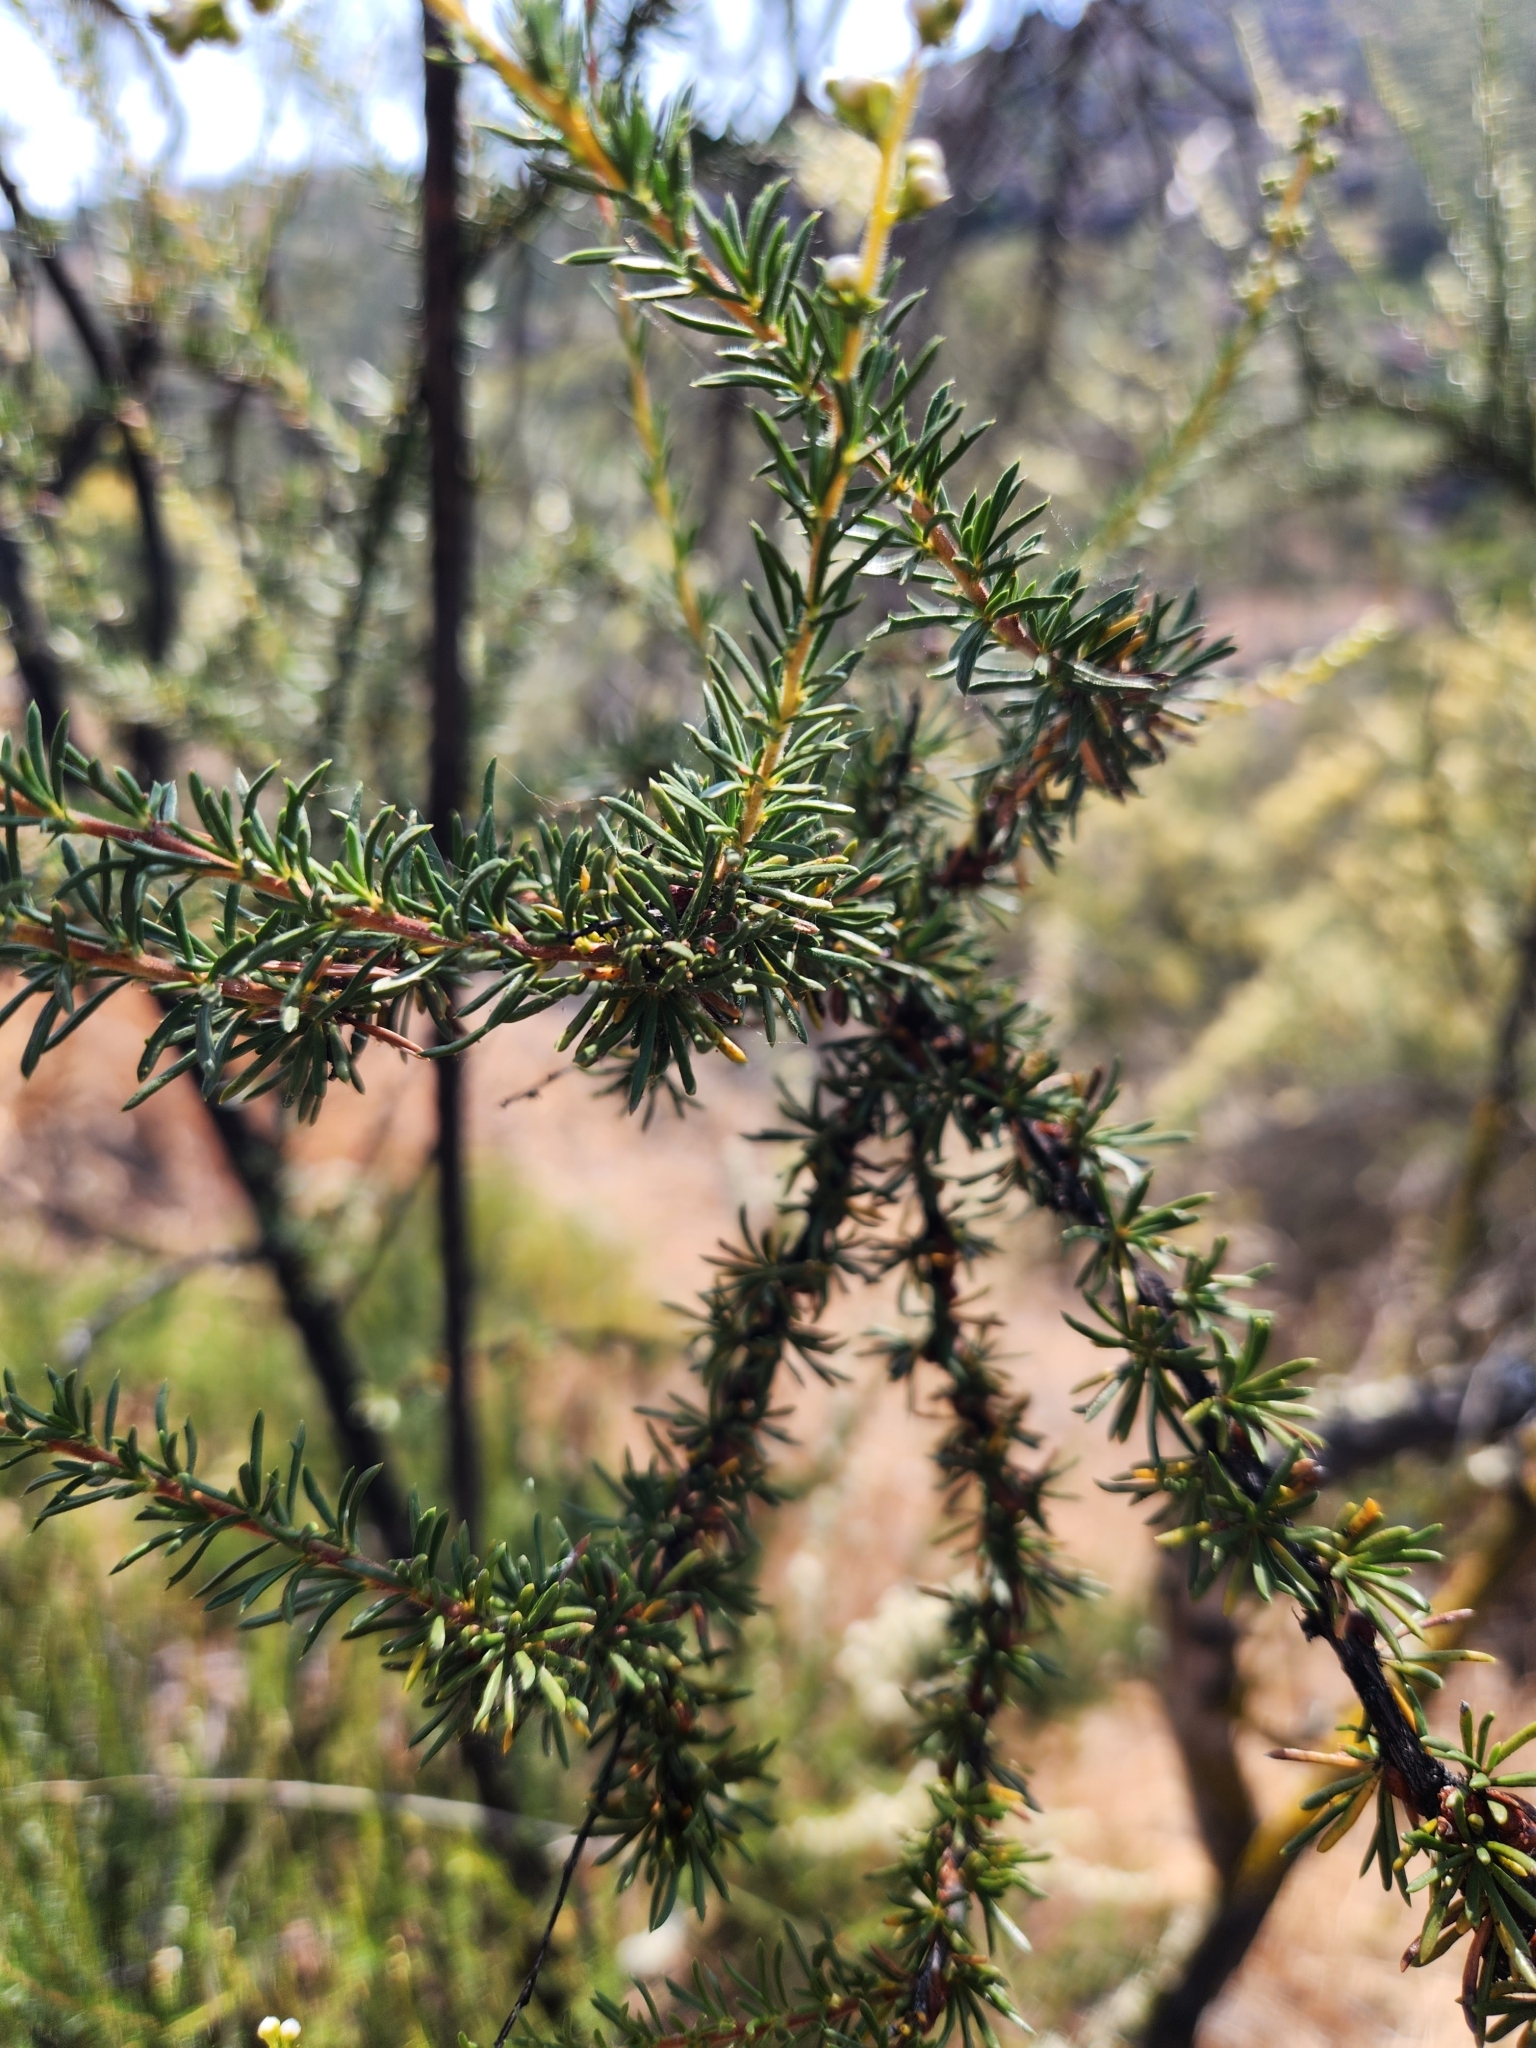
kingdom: Plantae
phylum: Tracheophyta
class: Magnoliopsida
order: Rosales
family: Rosaceae
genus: Adenostoma
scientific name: Adenostoma fasciculatum
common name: Chamise
